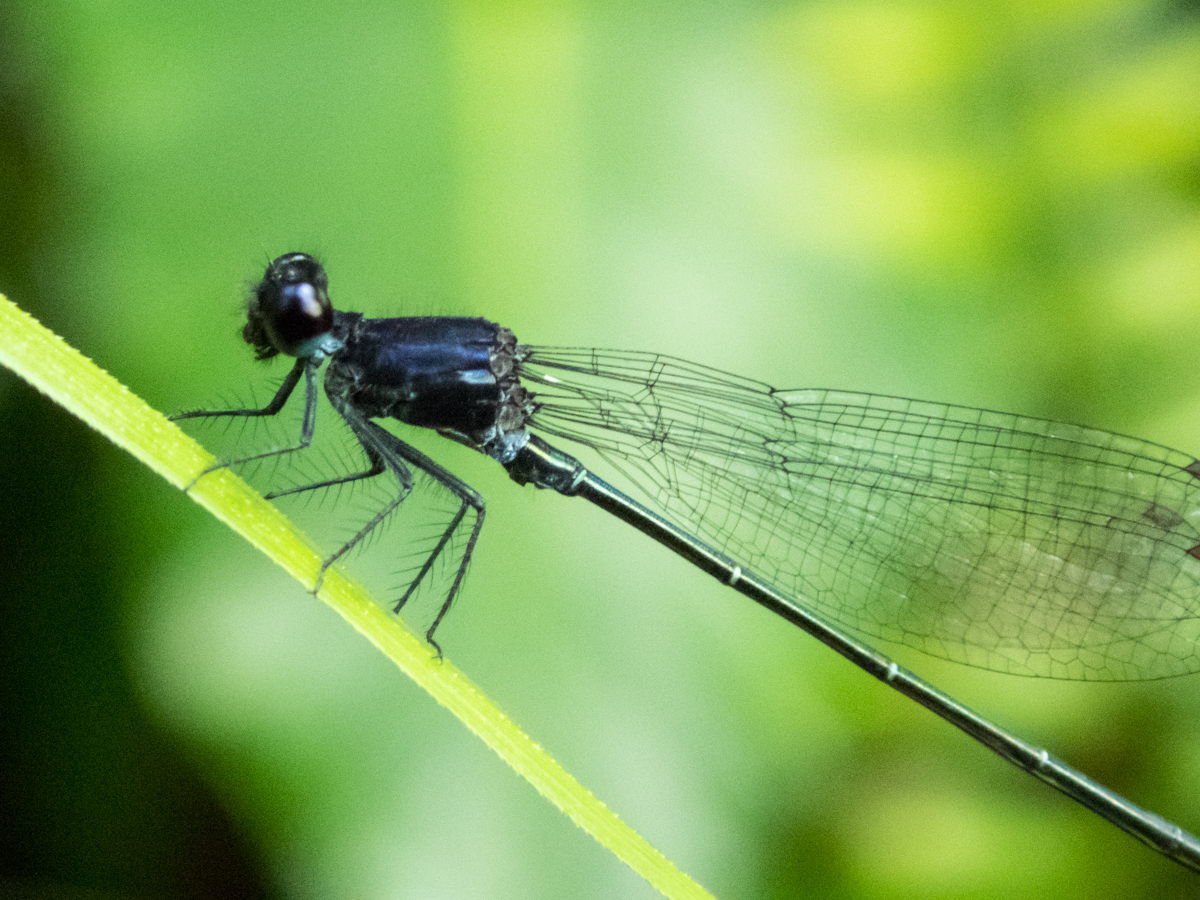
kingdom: Animalia
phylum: Arthropoda
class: Insecta
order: Odonata
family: Platycnemididae
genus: Onychargia
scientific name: Onychargia atrocyana
